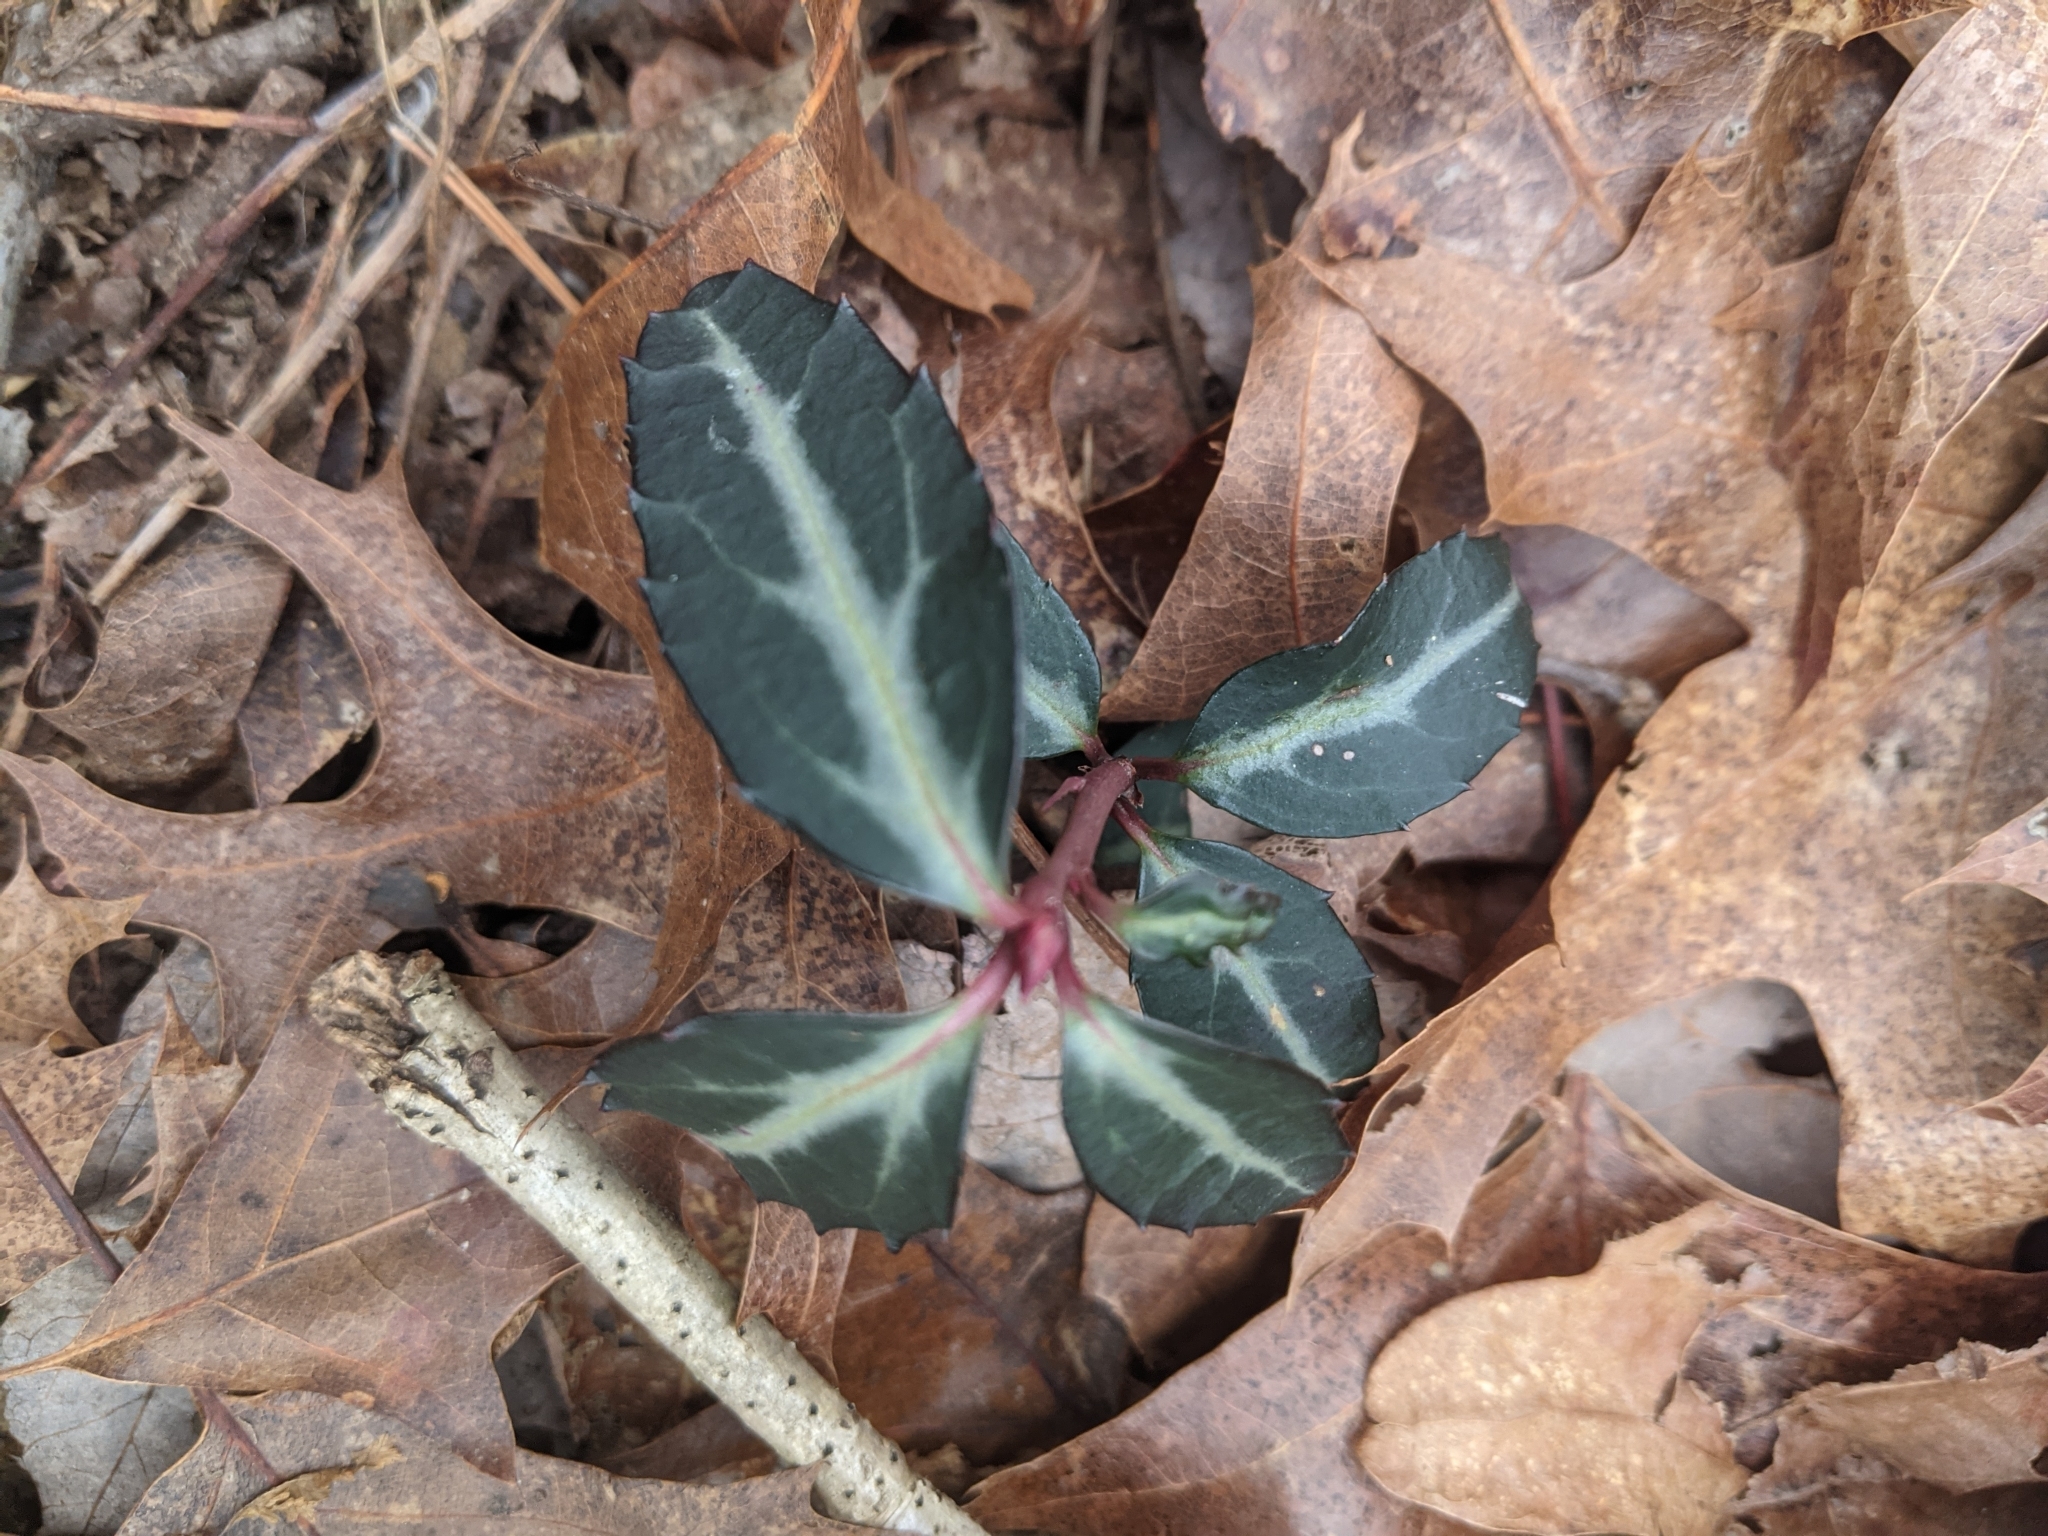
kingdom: Plantae
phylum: Tracheophyta
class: Magnoliopsida
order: Ericales
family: Ericaceae
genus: Chimaphila
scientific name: Chimaphila maculata
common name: Spotted pipsissewa
